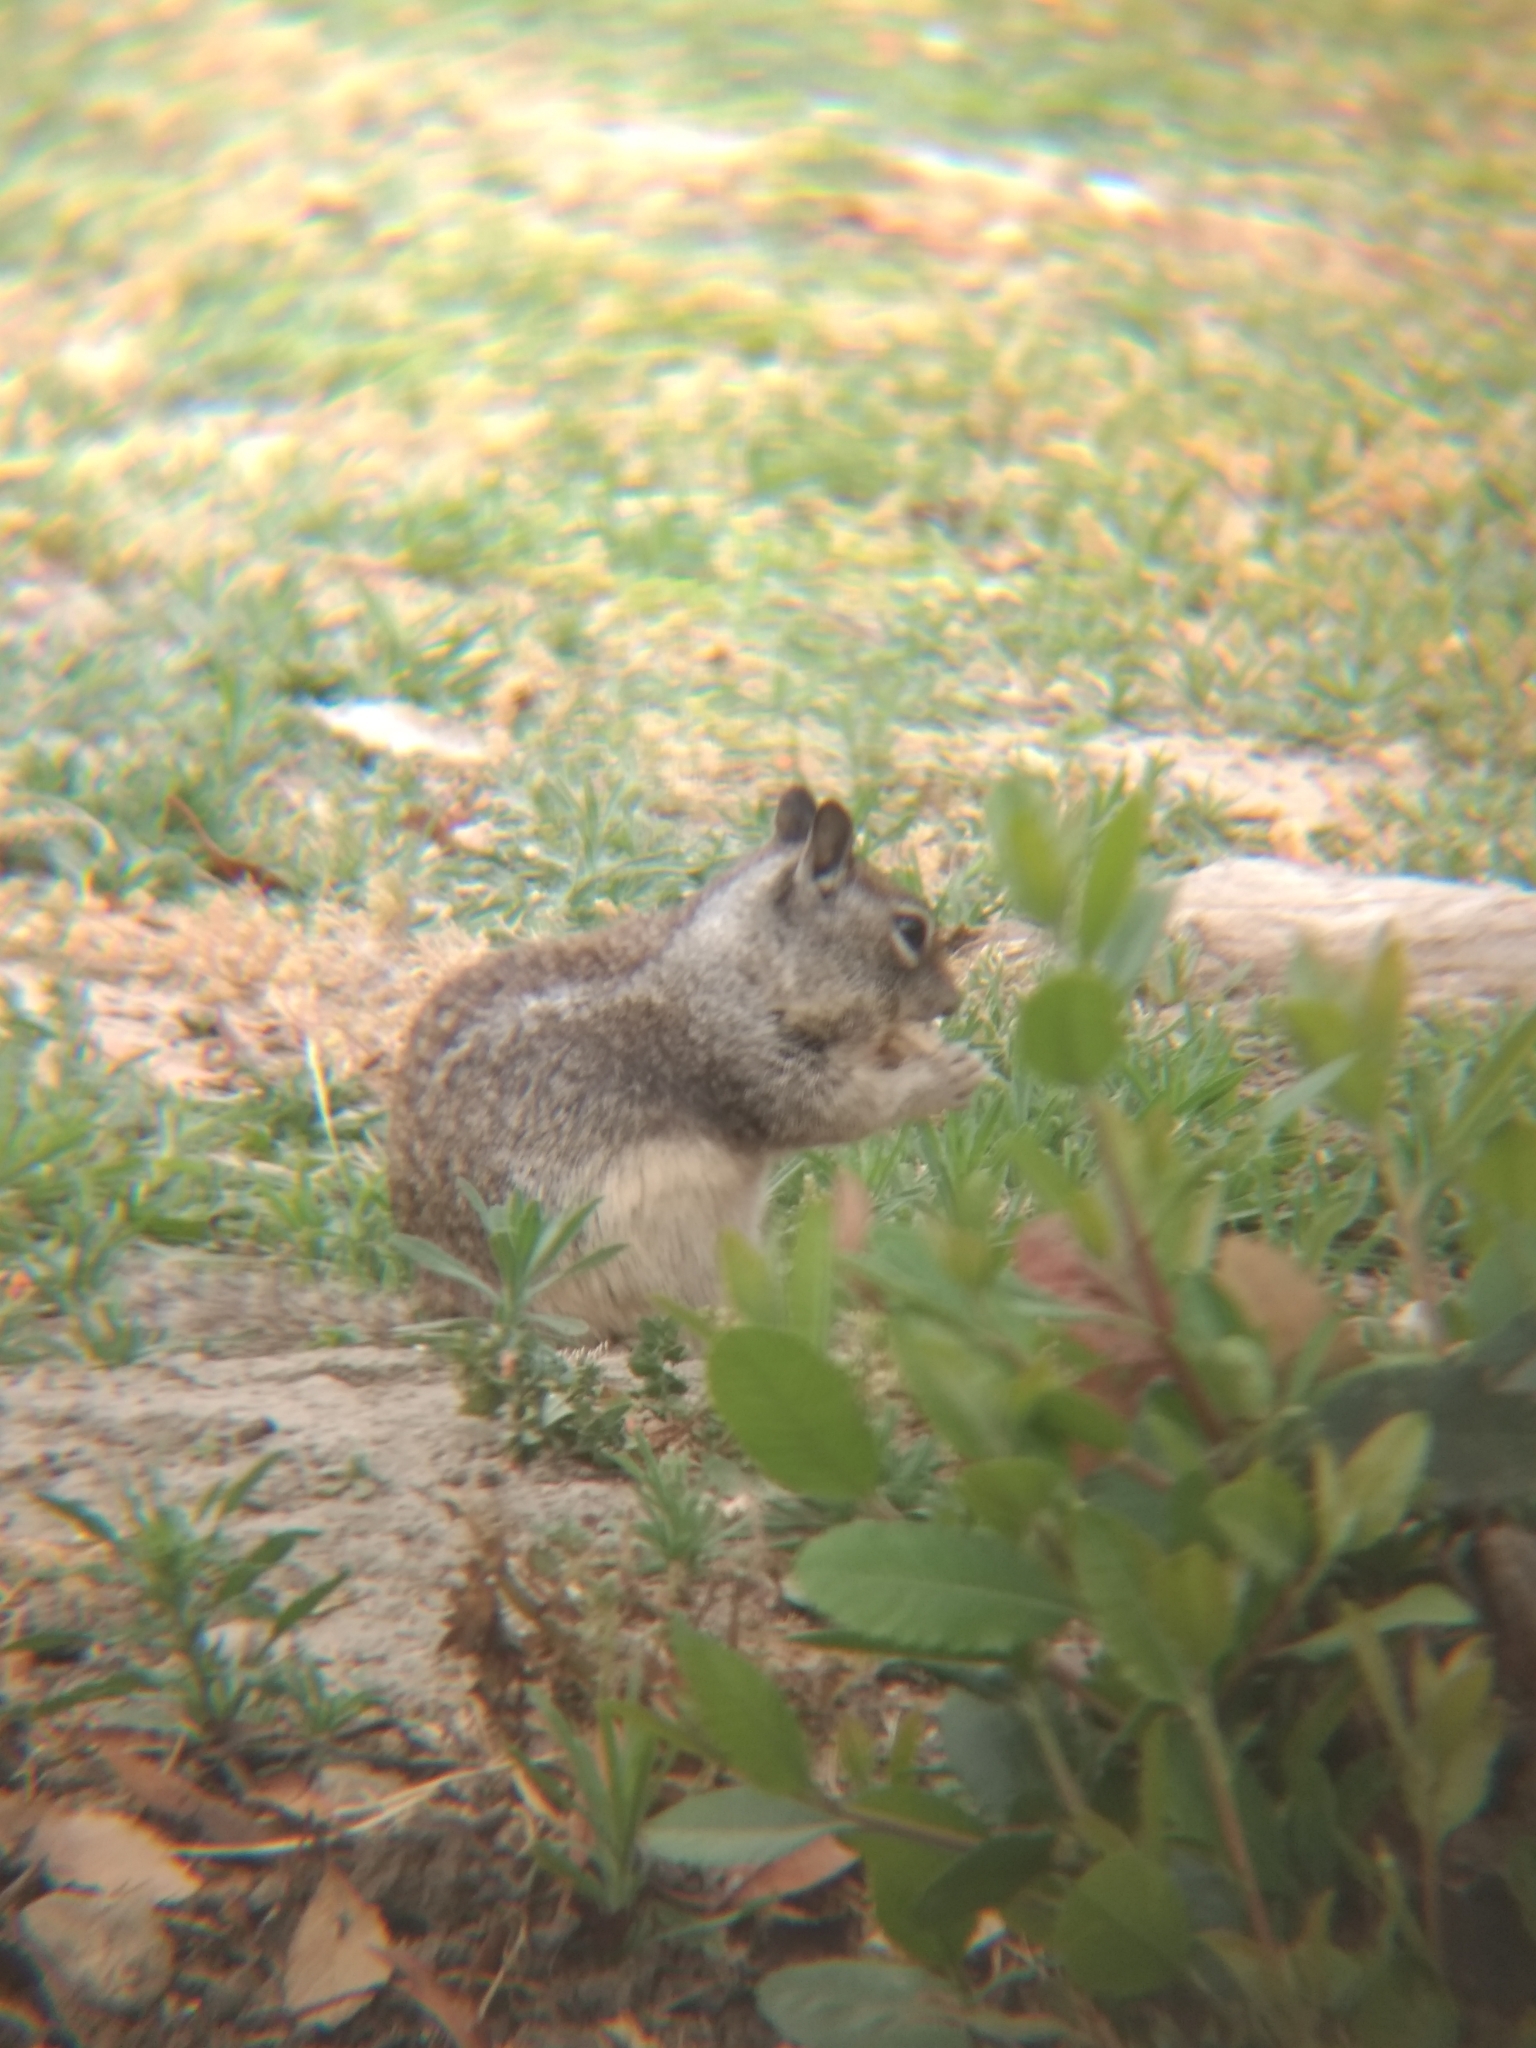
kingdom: Animalia
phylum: Chordata
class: Mammalia
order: Rodentia
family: Sciuridae
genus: Otospermophilus
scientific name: Otospermophilus beecheyi
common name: California ground squirrel
